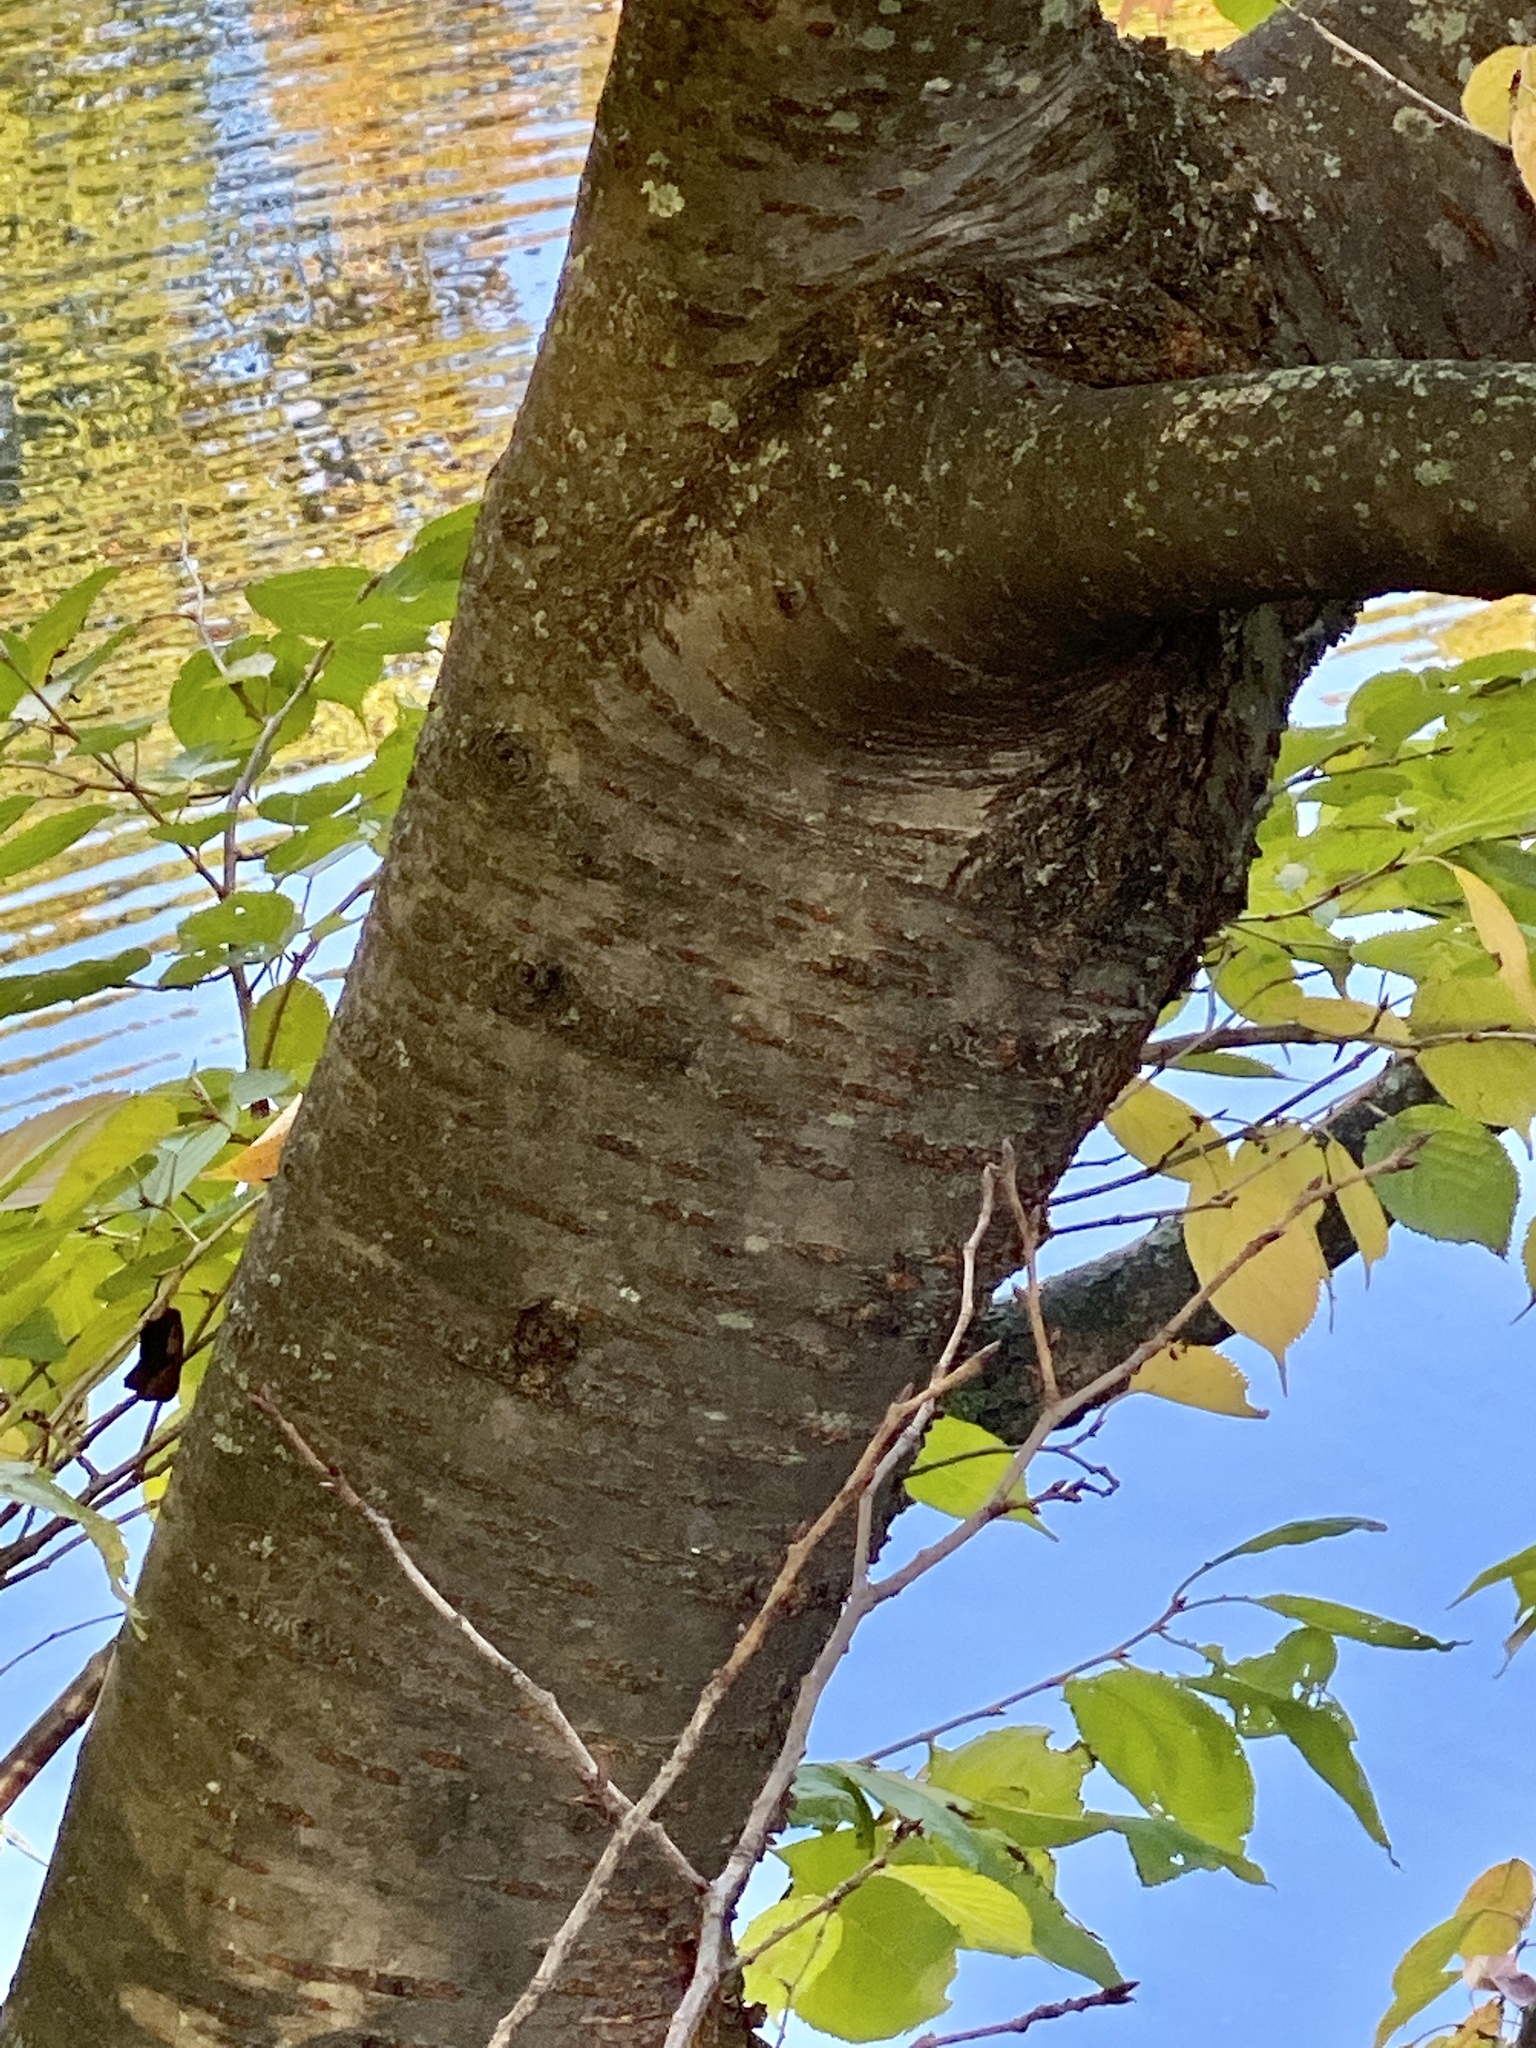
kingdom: Plantae
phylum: Tracheophyta
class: Magnoliopsida
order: Rosales
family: Rosaceae
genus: Prunus
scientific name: Prunus avium
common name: Sweet cherry
